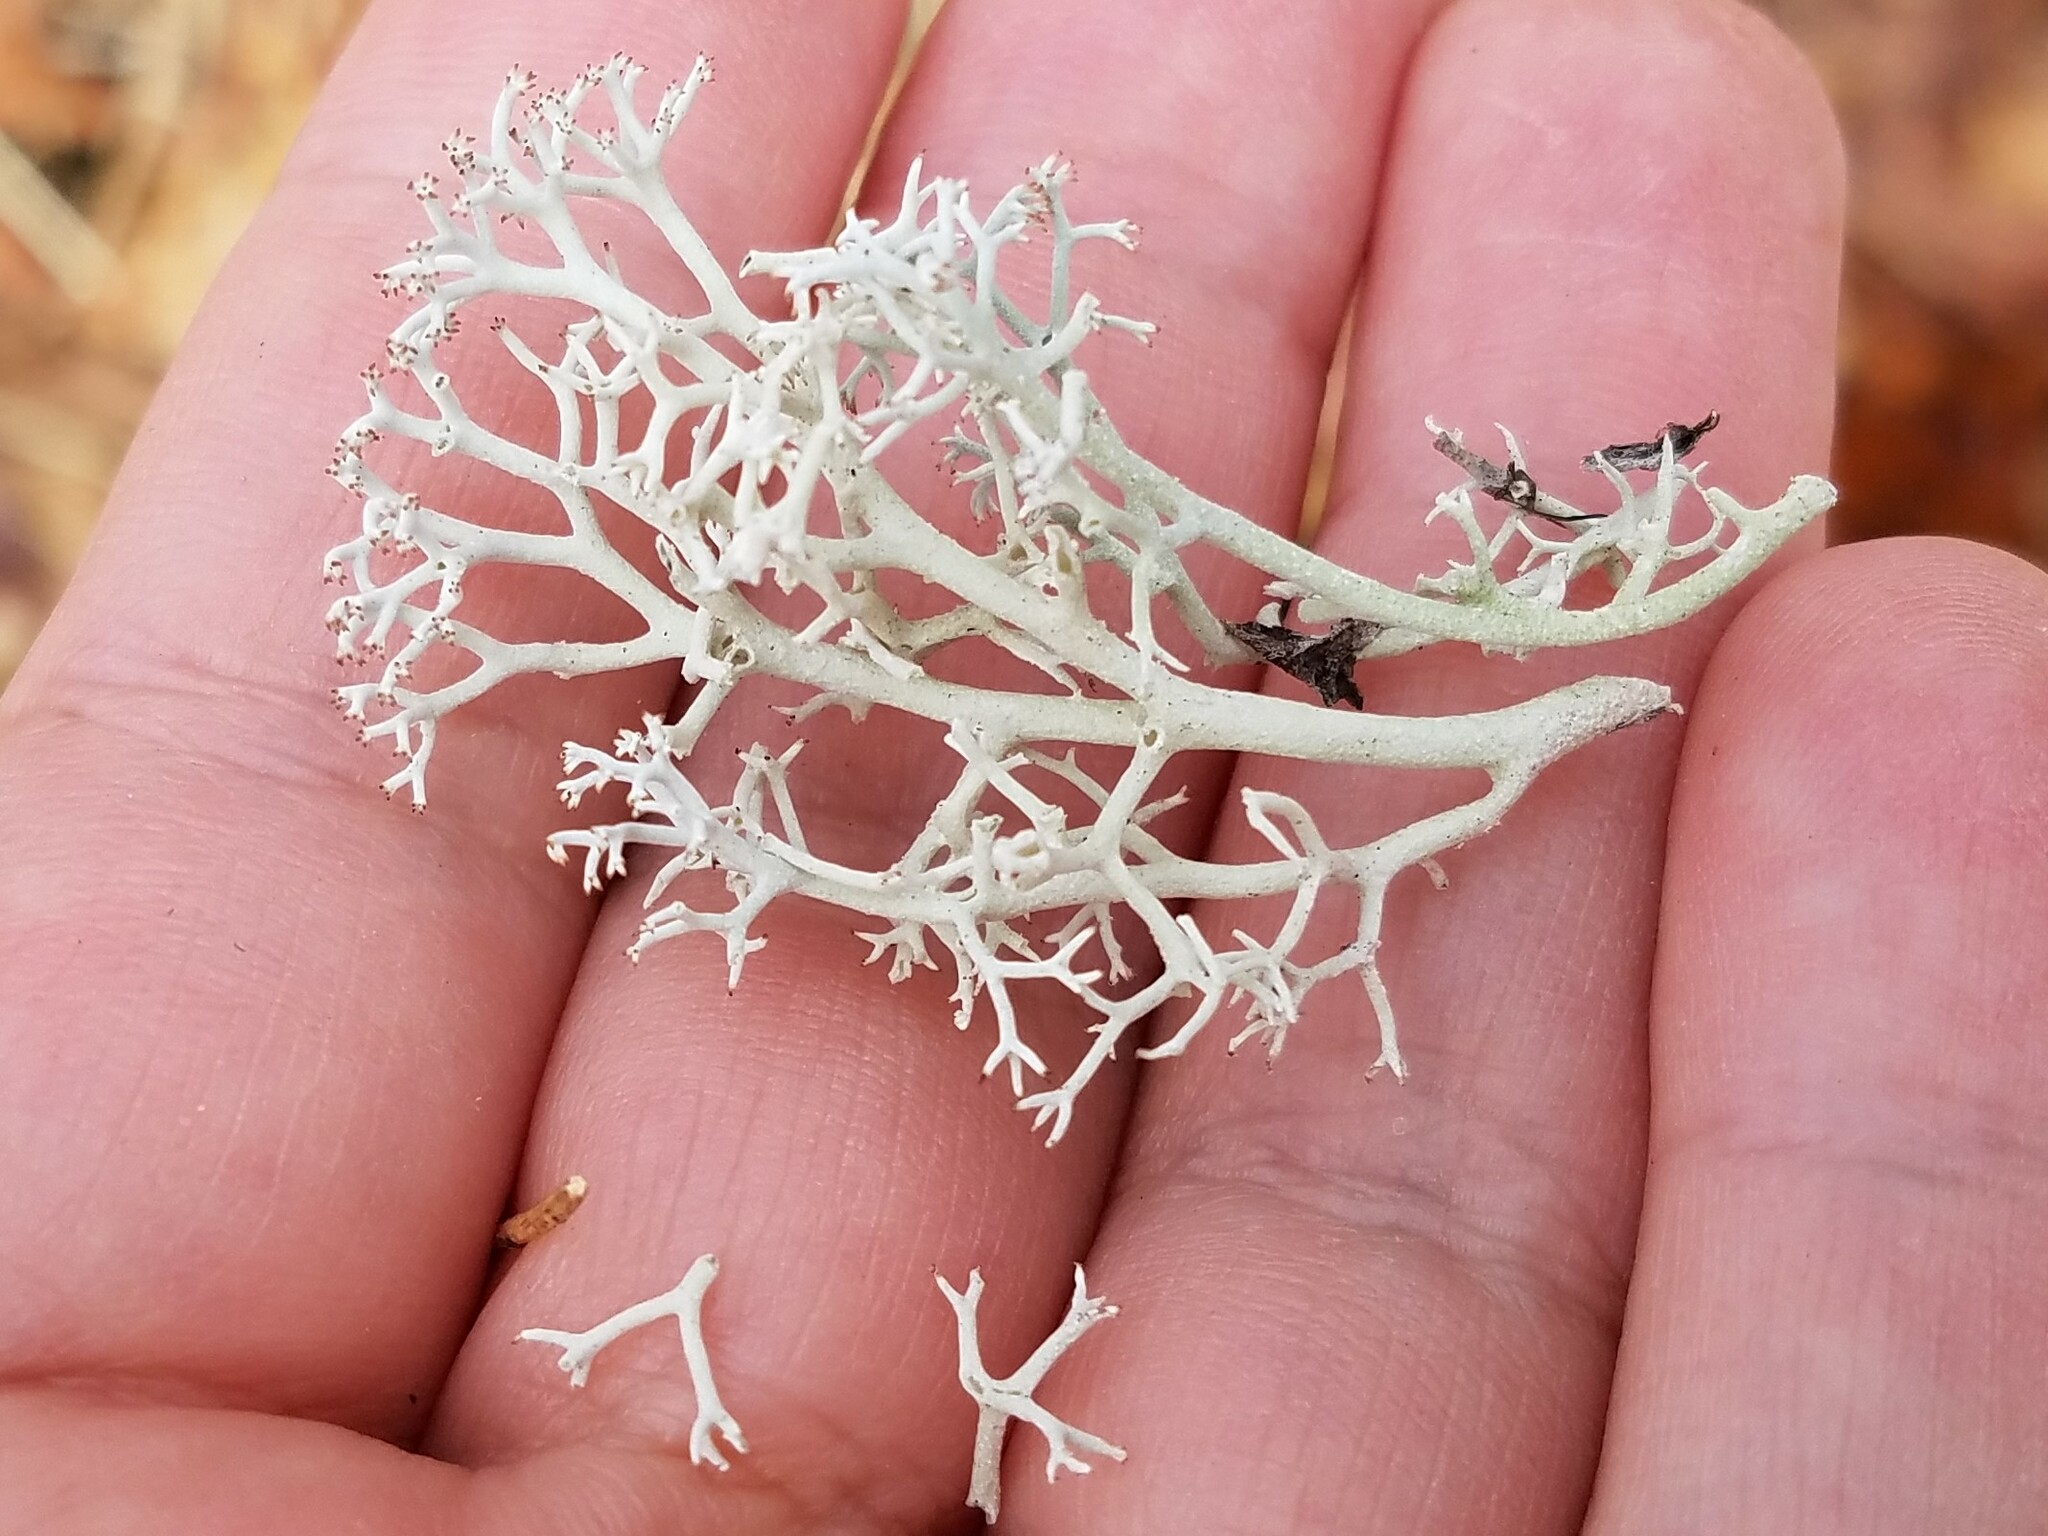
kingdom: Fungi
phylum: Ascomycota
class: Lecanoromycetes
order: Lecanorales
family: Cladoniaceae
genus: Cladonia
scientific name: Cladonia rangiferina
